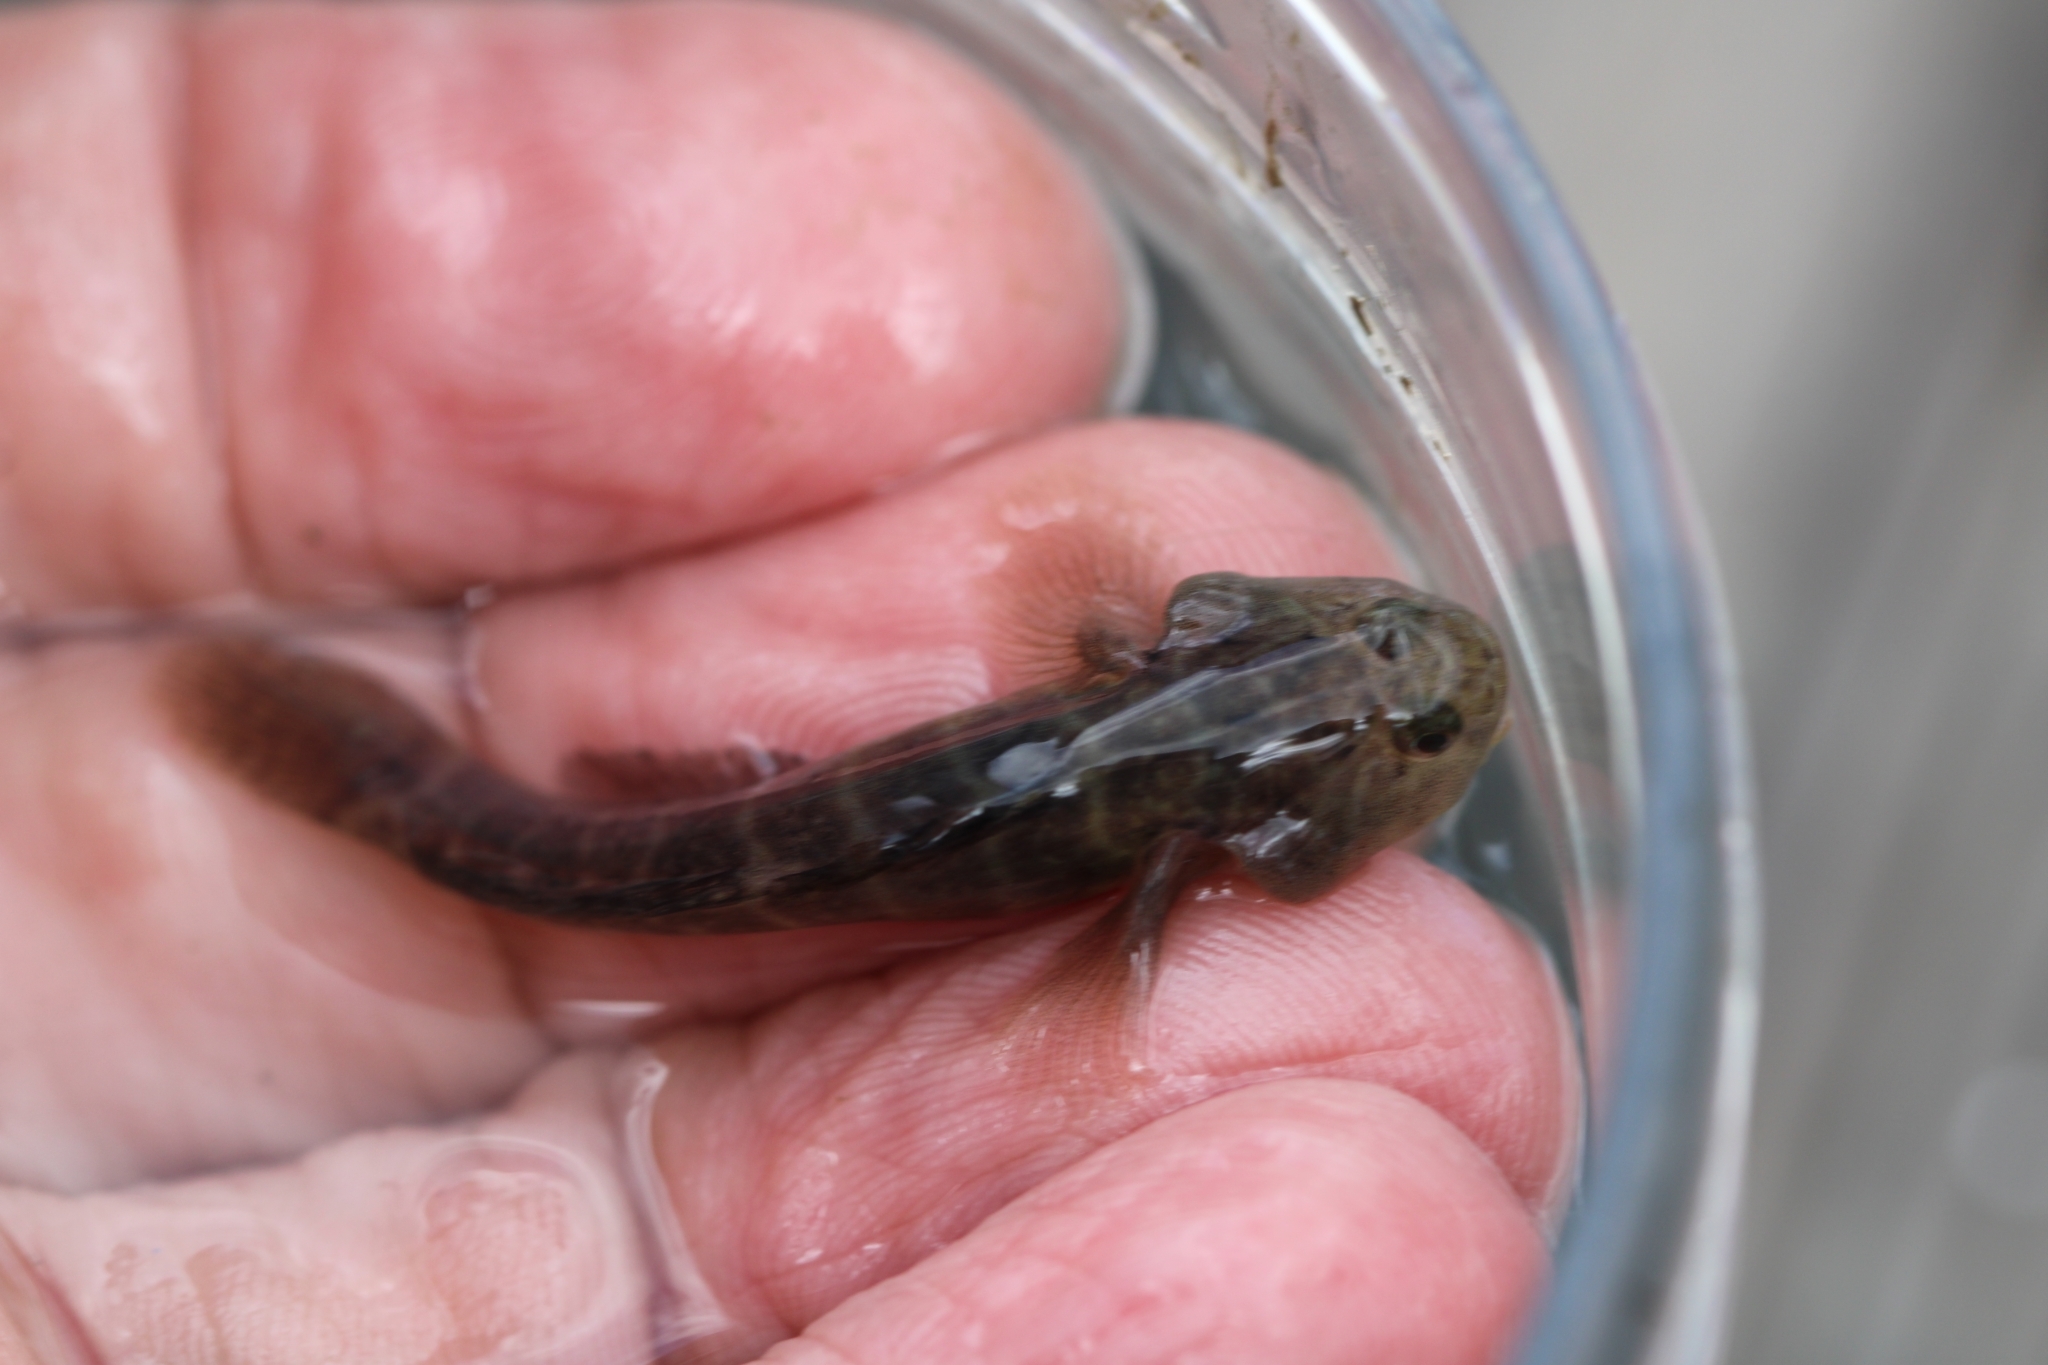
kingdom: Animalia
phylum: Chordata
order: Perciformes
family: Gobiidae
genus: Gobiosoma
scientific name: Gobiosoma bosc
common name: Naked goby
